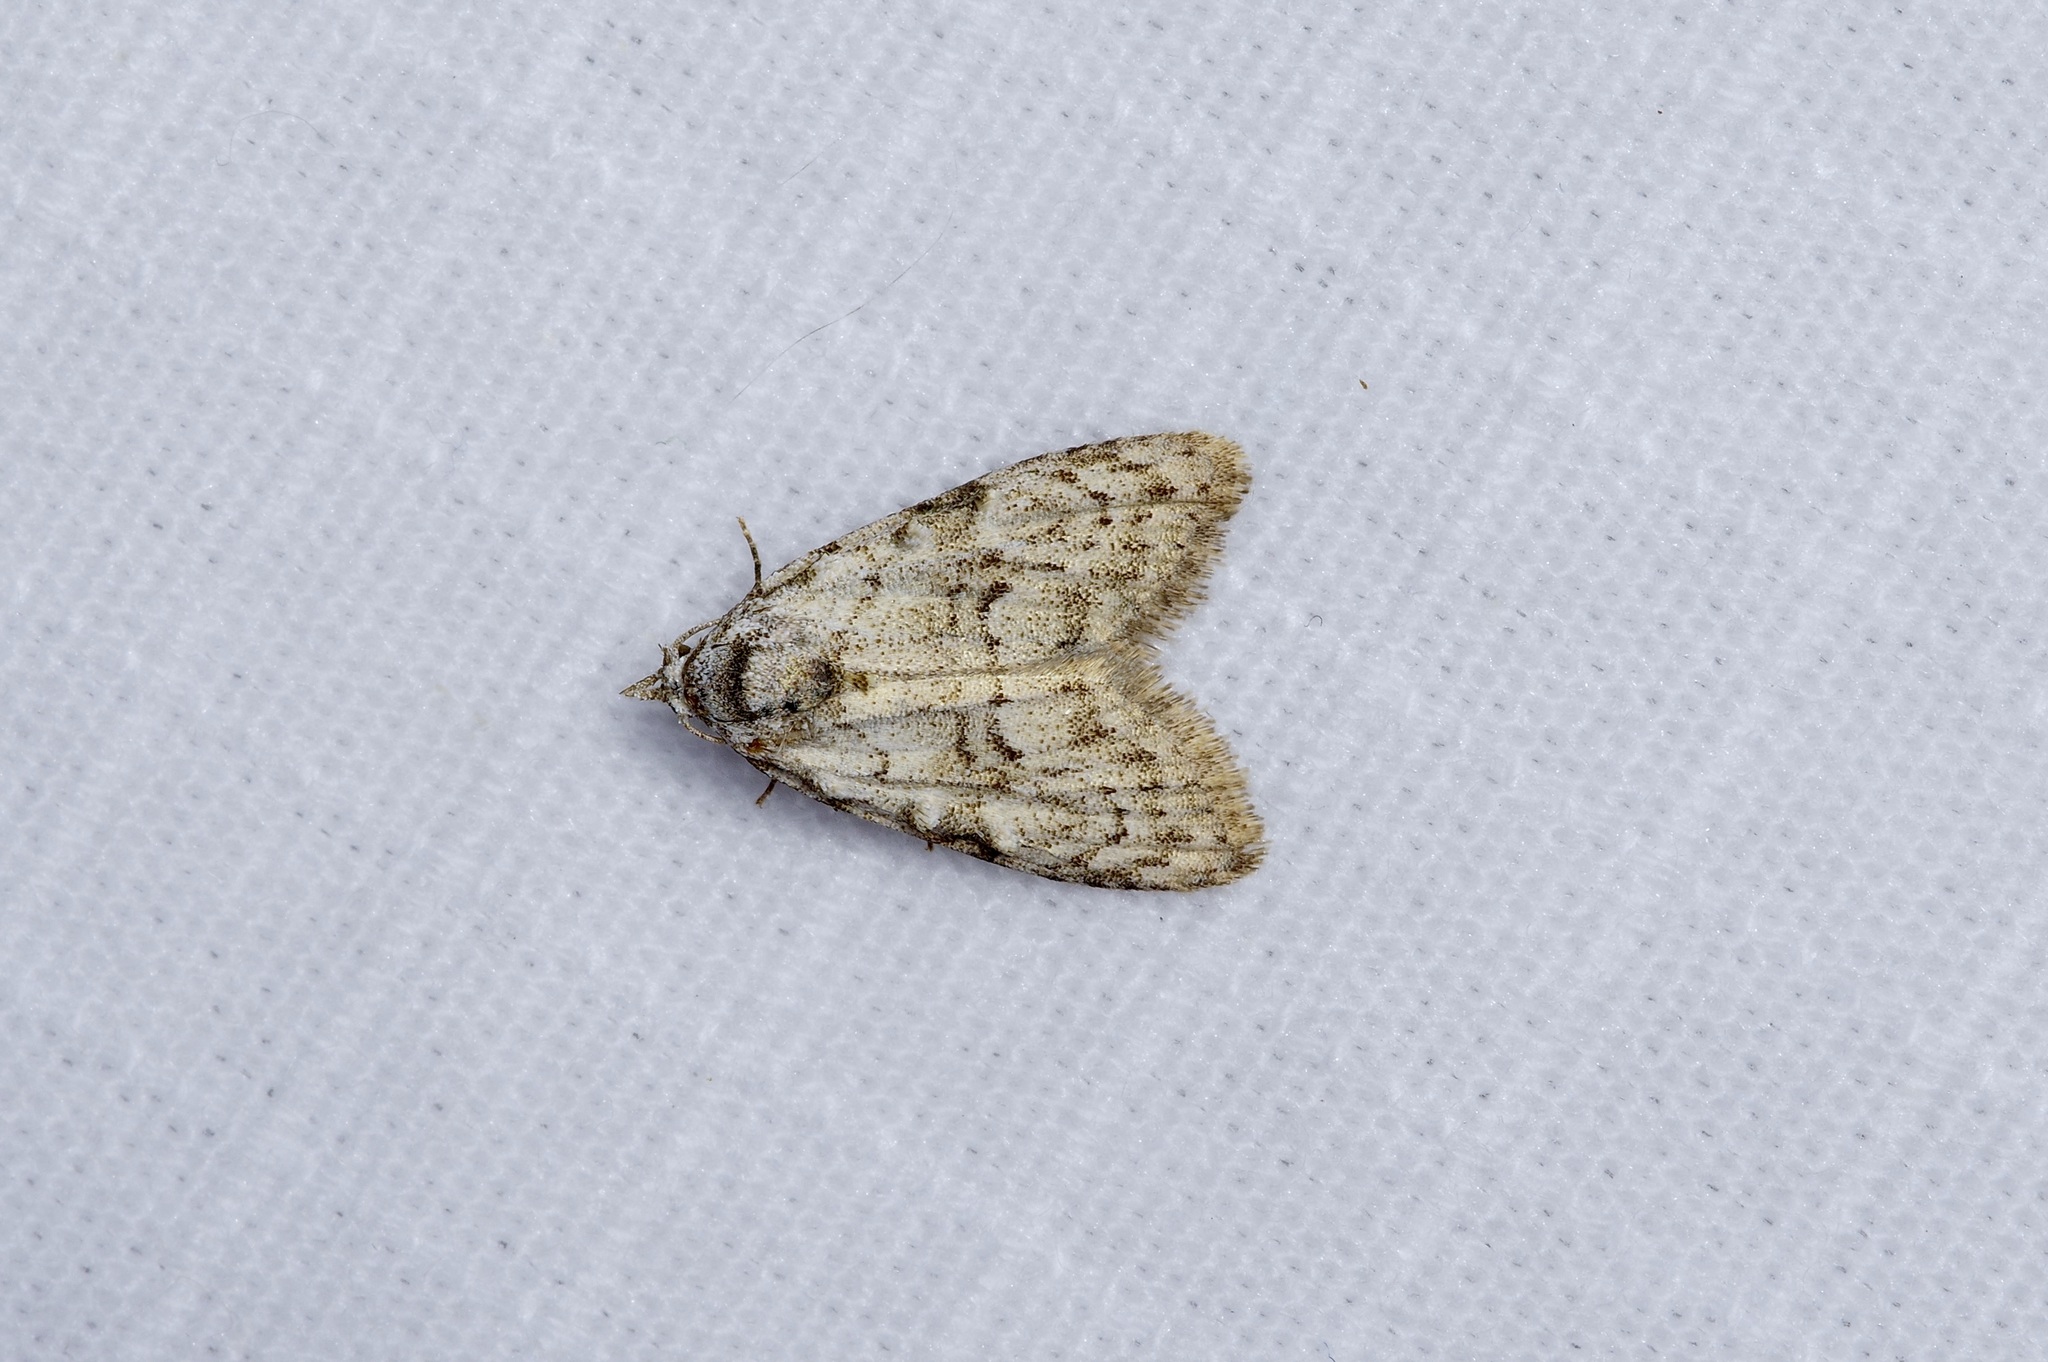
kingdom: Animalia
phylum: Arthropoda
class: Insecta
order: Lepidoptera
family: Nolidae
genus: Meganola
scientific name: Meganola minuscula
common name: Confused meganola moth
